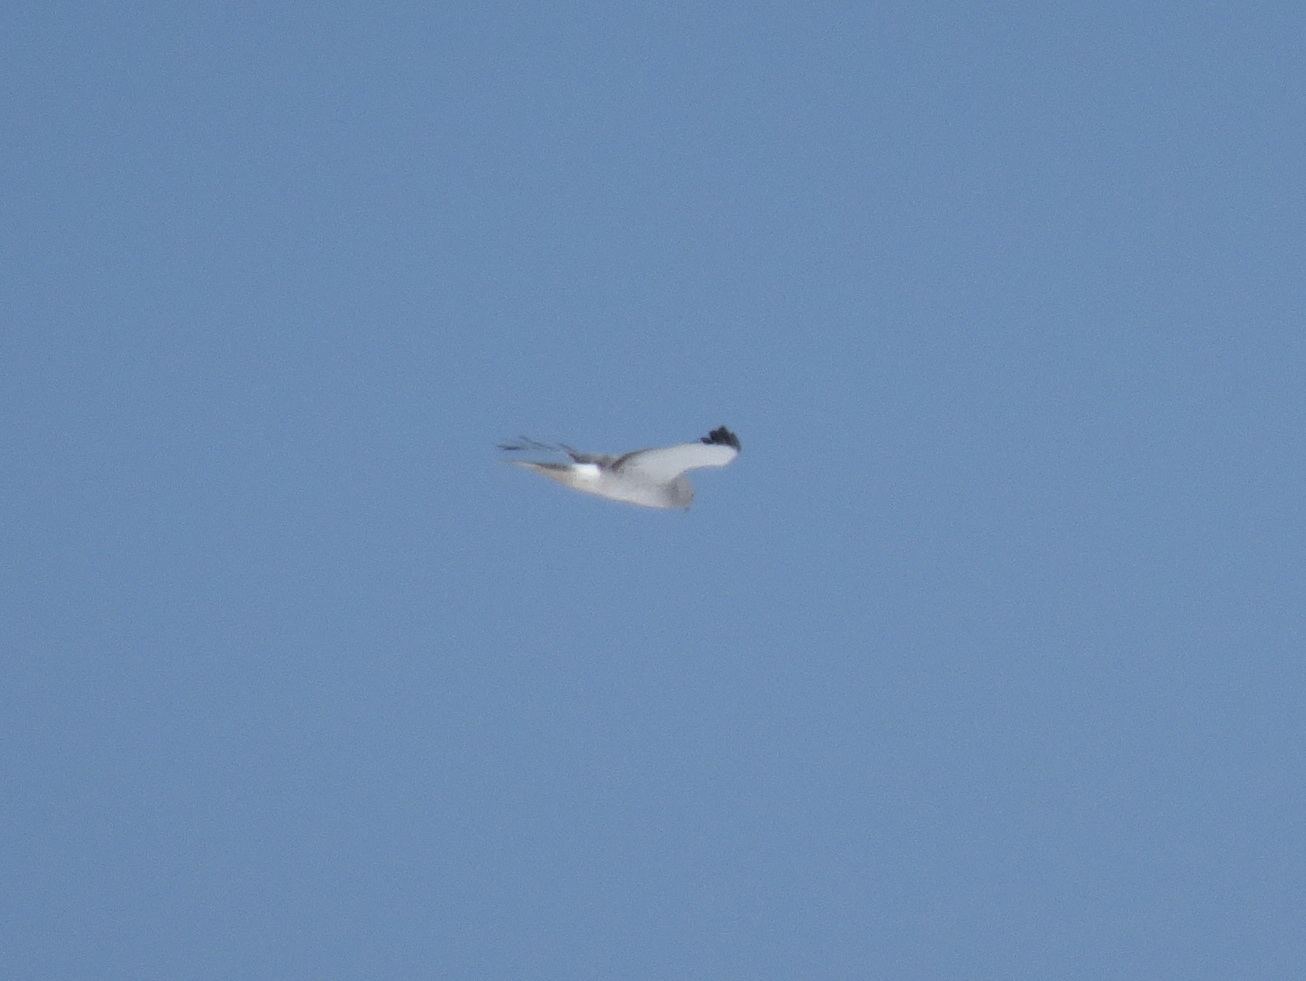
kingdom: Animalia
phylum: Chordata
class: Aves
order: Accipitriformes
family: Accipitridae
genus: Circus
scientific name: Circus cyaneus
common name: Hen harrier
